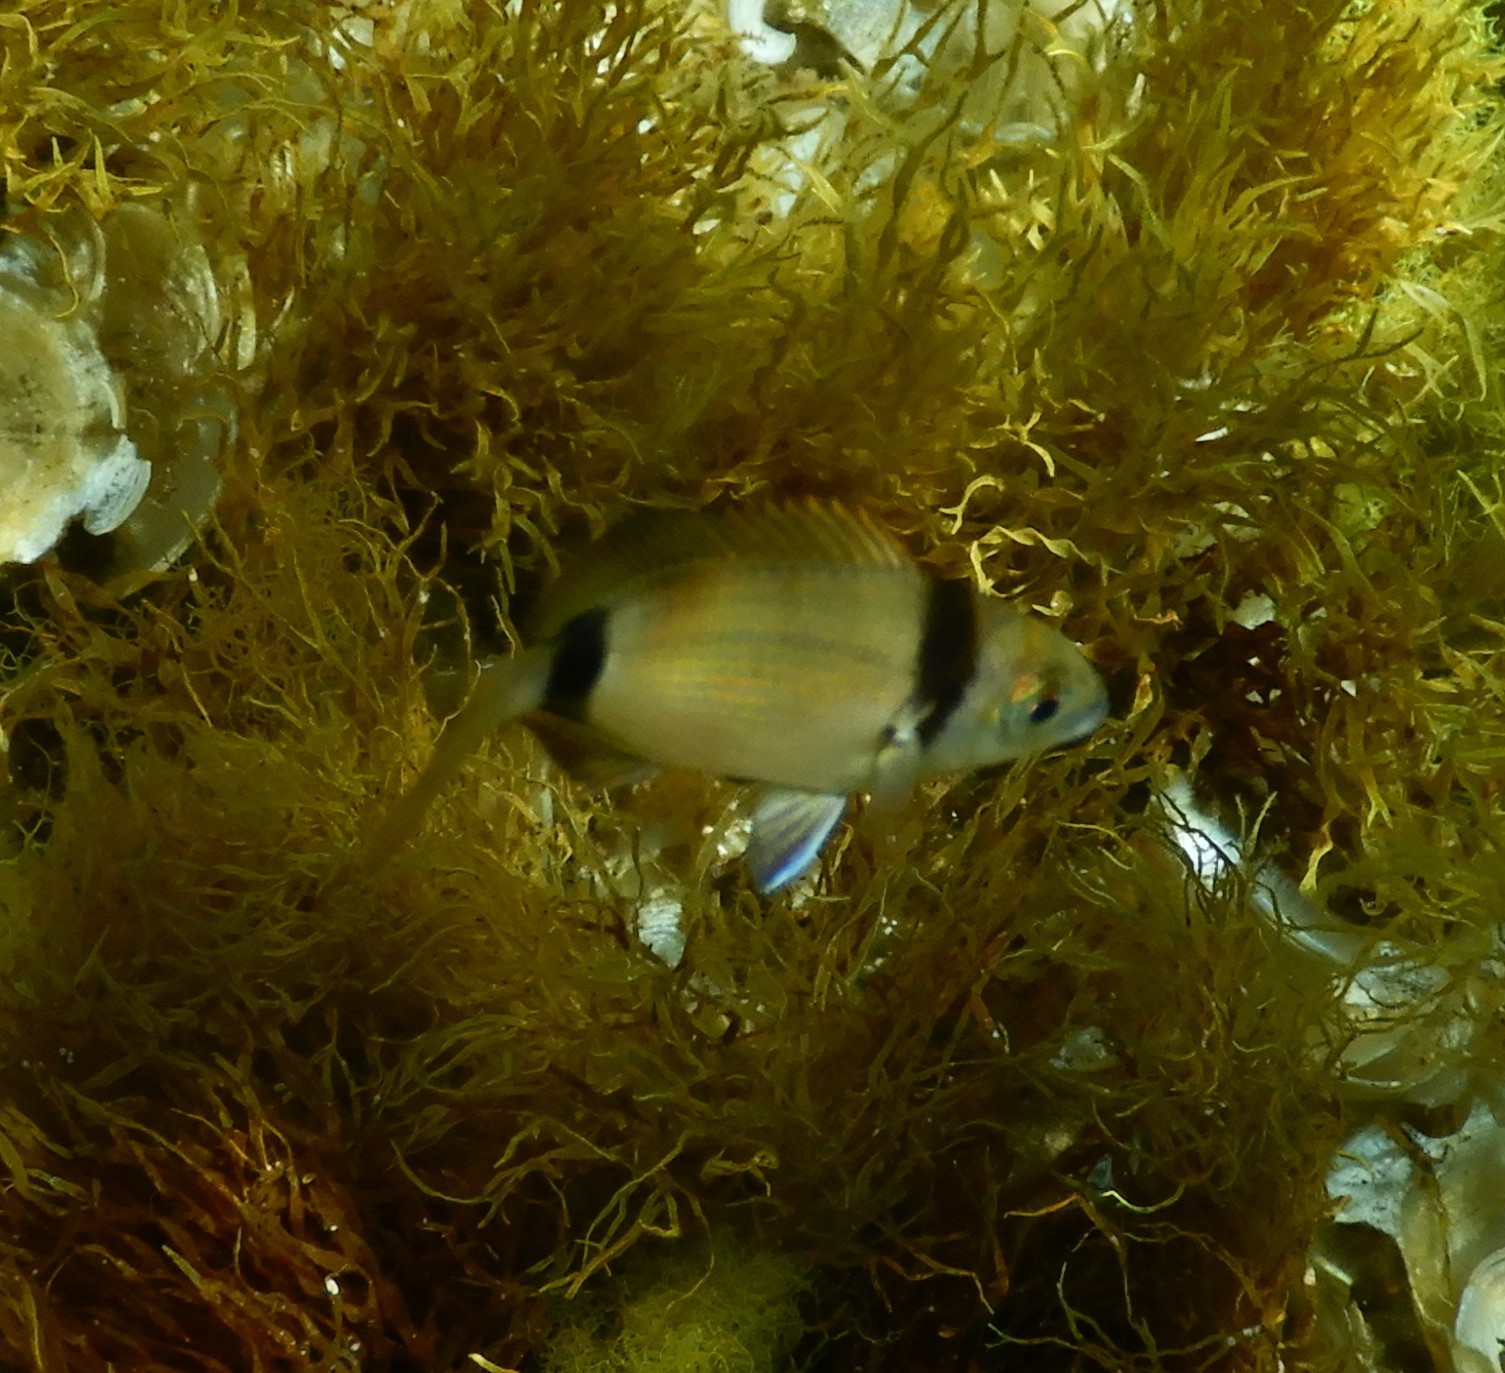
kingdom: Animalia
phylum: Chordata
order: Perciformes
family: Sparidae
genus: Diplodus
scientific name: Diplodus vulgaris
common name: Common two-banded seabream
